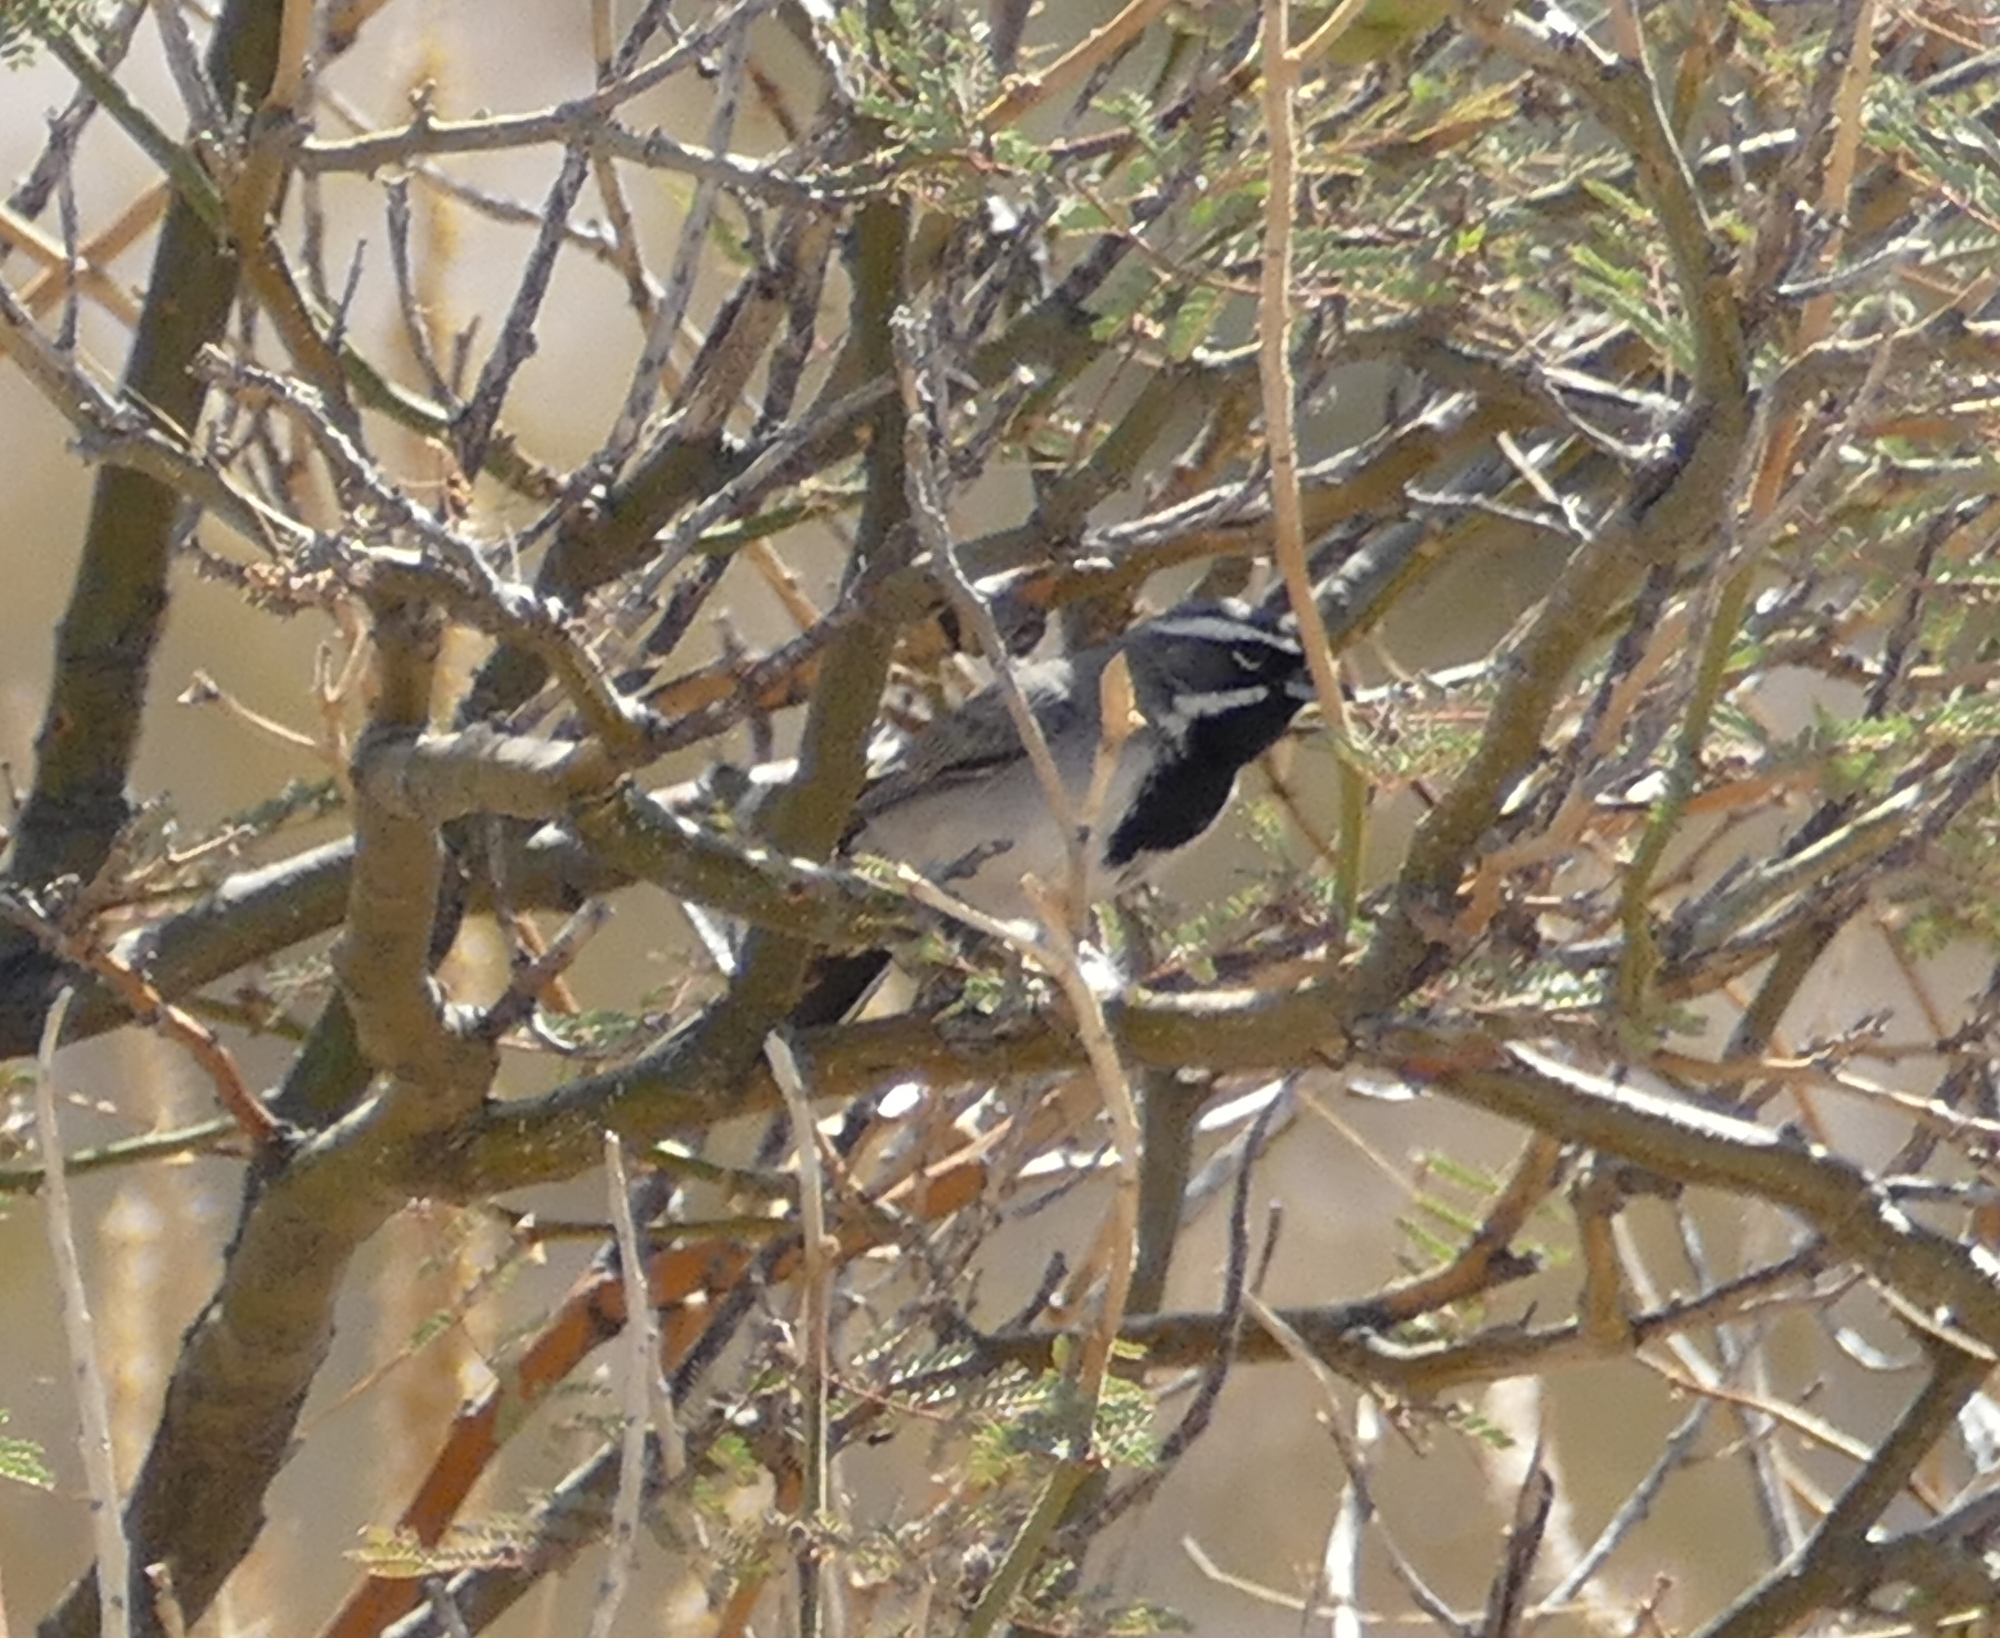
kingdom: Animalia
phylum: Chordata
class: Aves
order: Passeriformes
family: Passerellidae
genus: Amphispiza
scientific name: Amphispiza bilineata
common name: Black-throated sparrow
